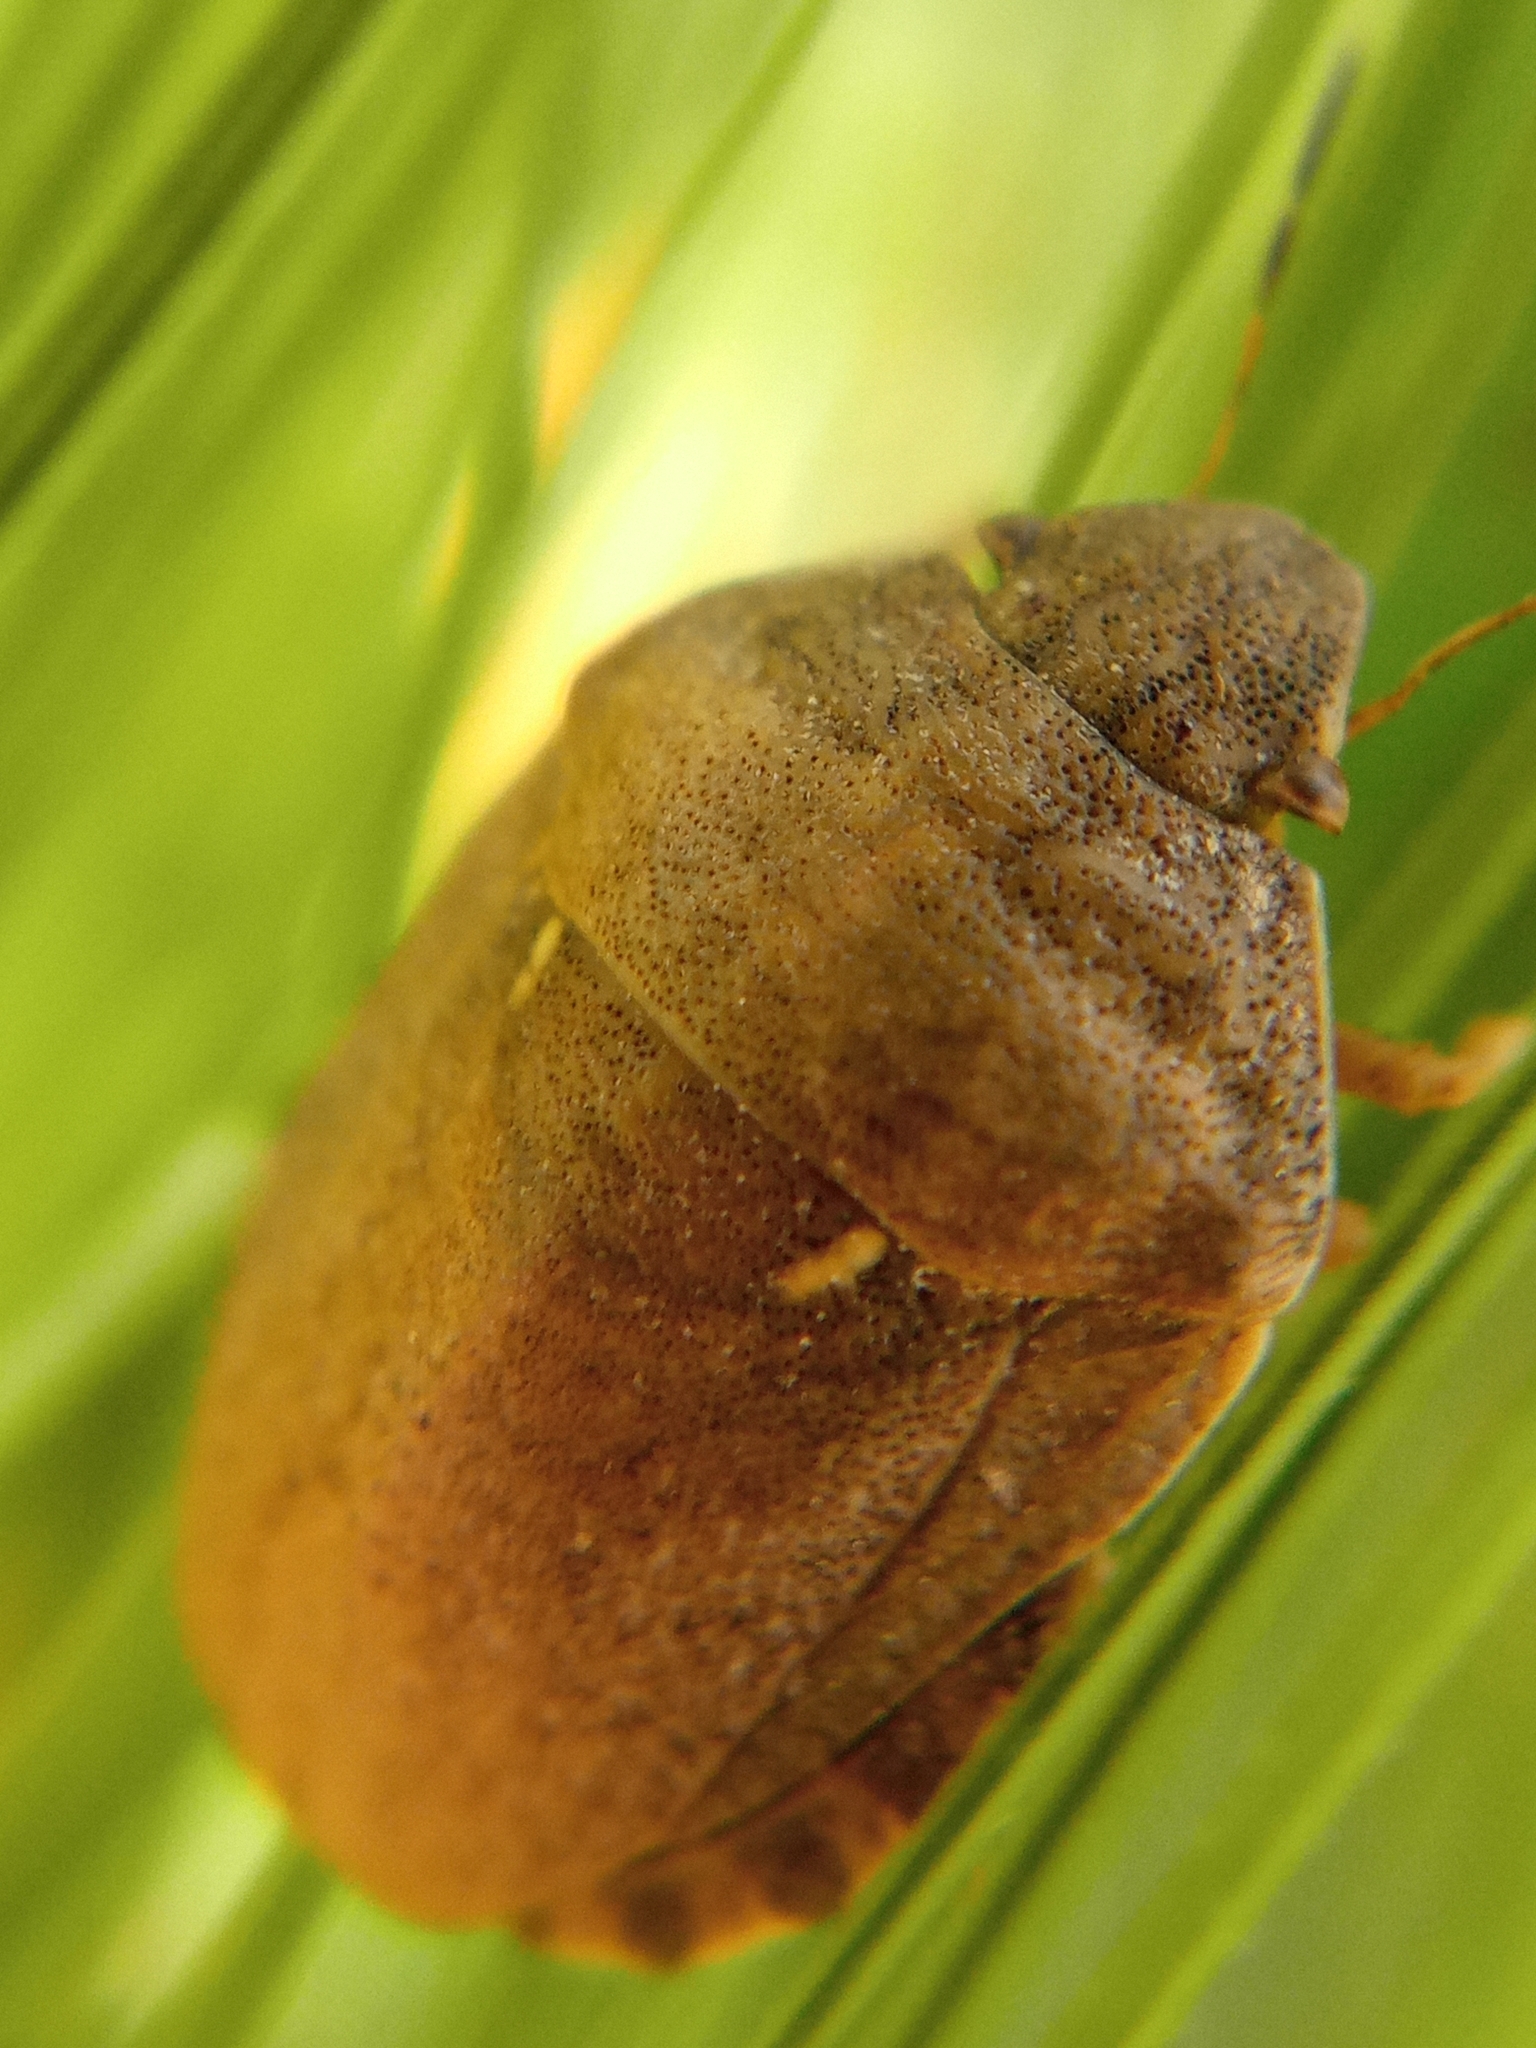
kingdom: Animalia
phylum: Arthropoda
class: Insecta
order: Hemiptera
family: Scutelleridae
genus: Eurygaster
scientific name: Eurygaster maura
